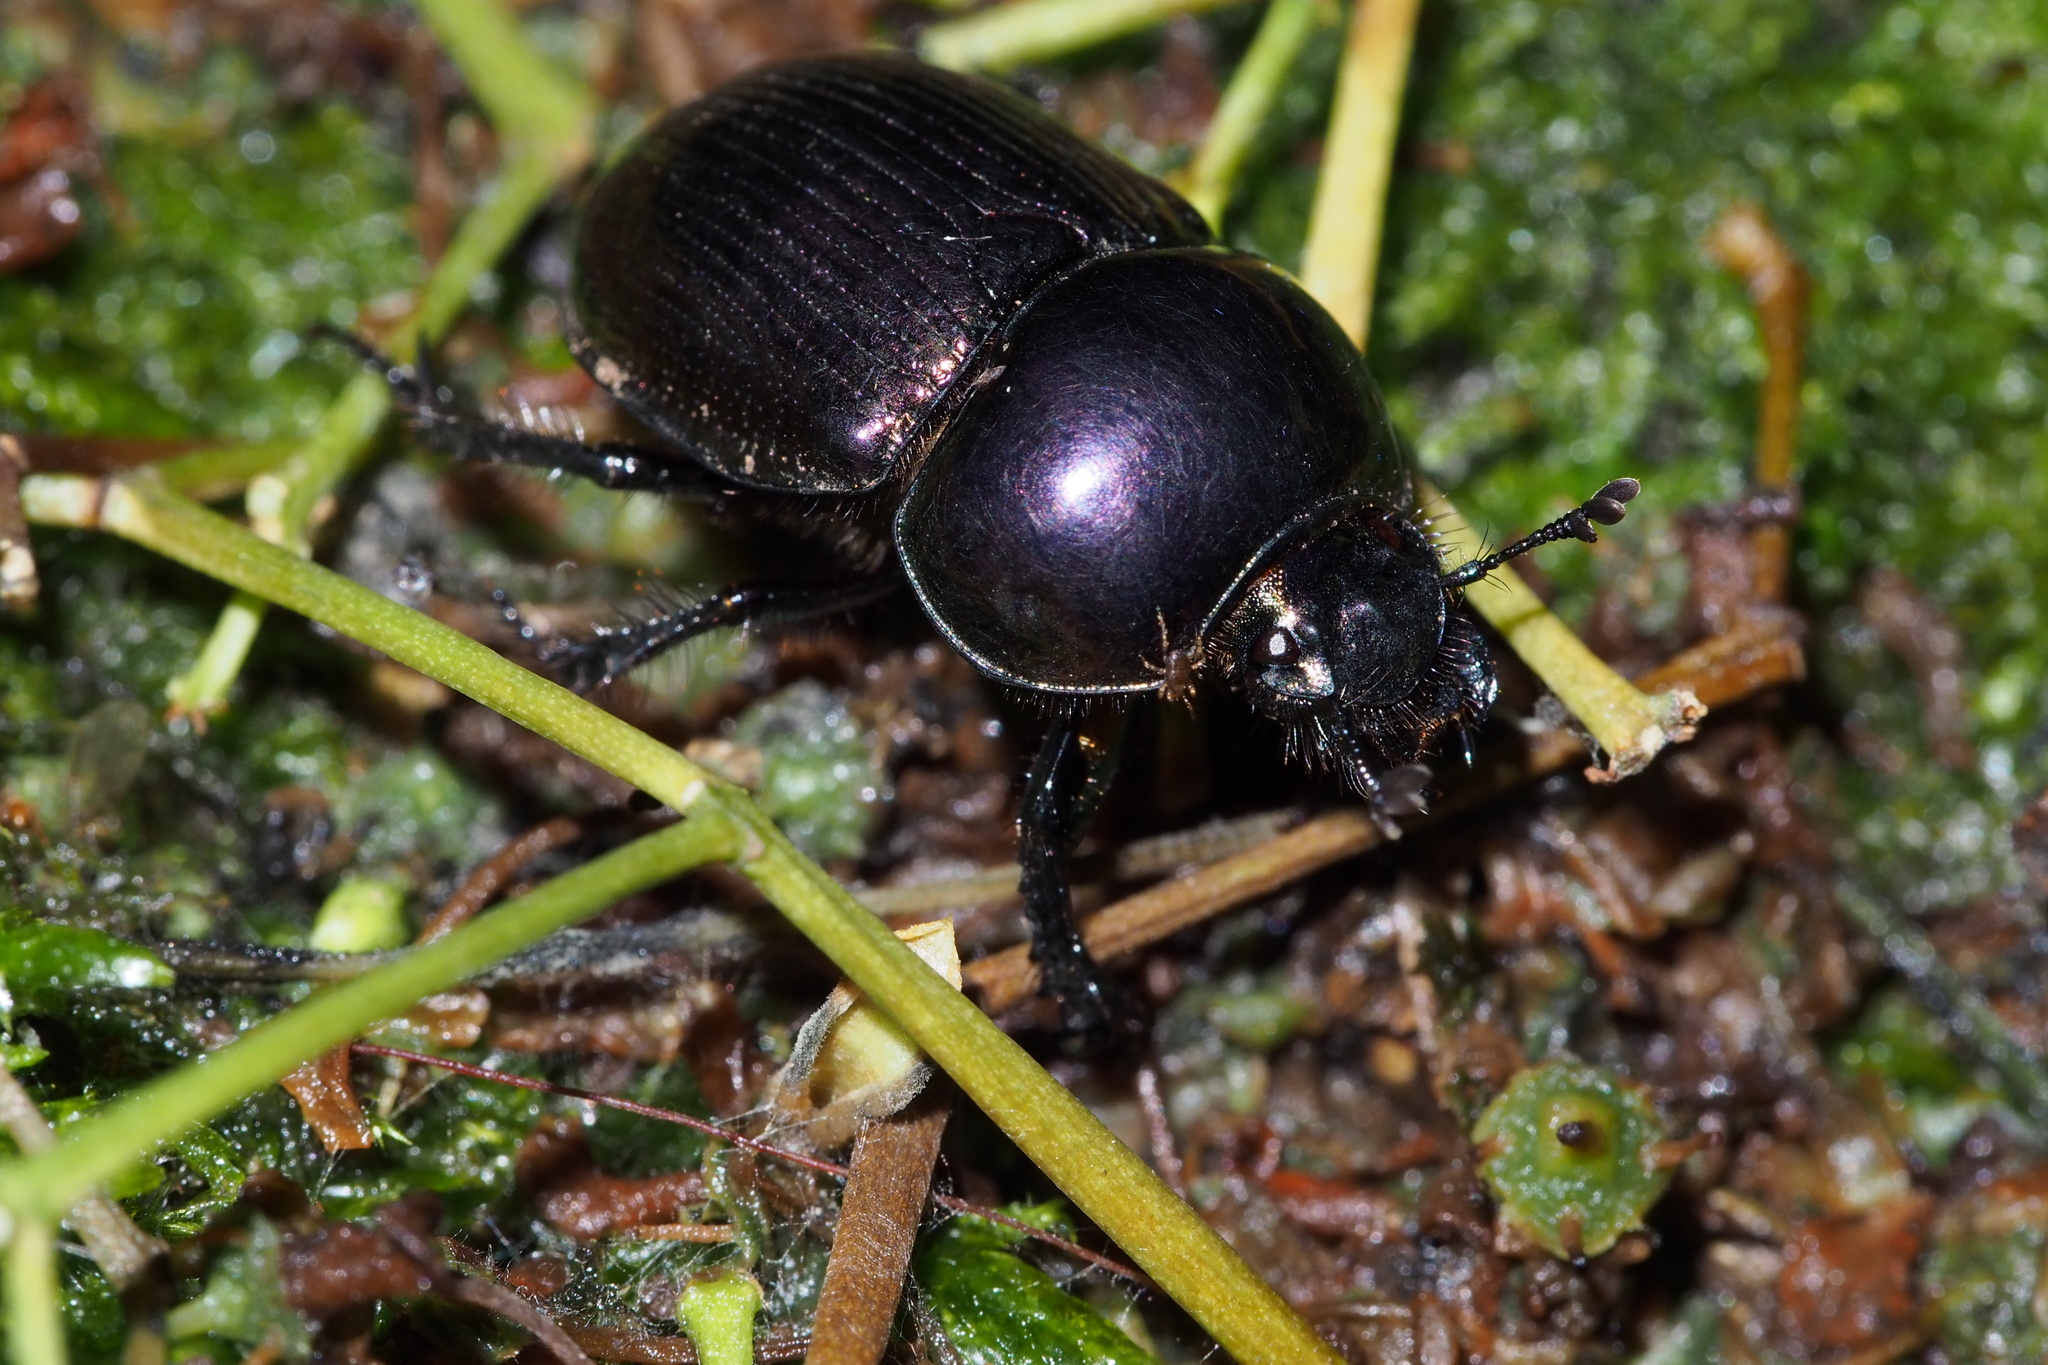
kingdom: Animalia
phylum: Arthropoda
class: Insecta
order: Coleoptera
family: Geotrupidae
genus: Phelotrupes
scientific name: Phelotrupes laevistriatus
